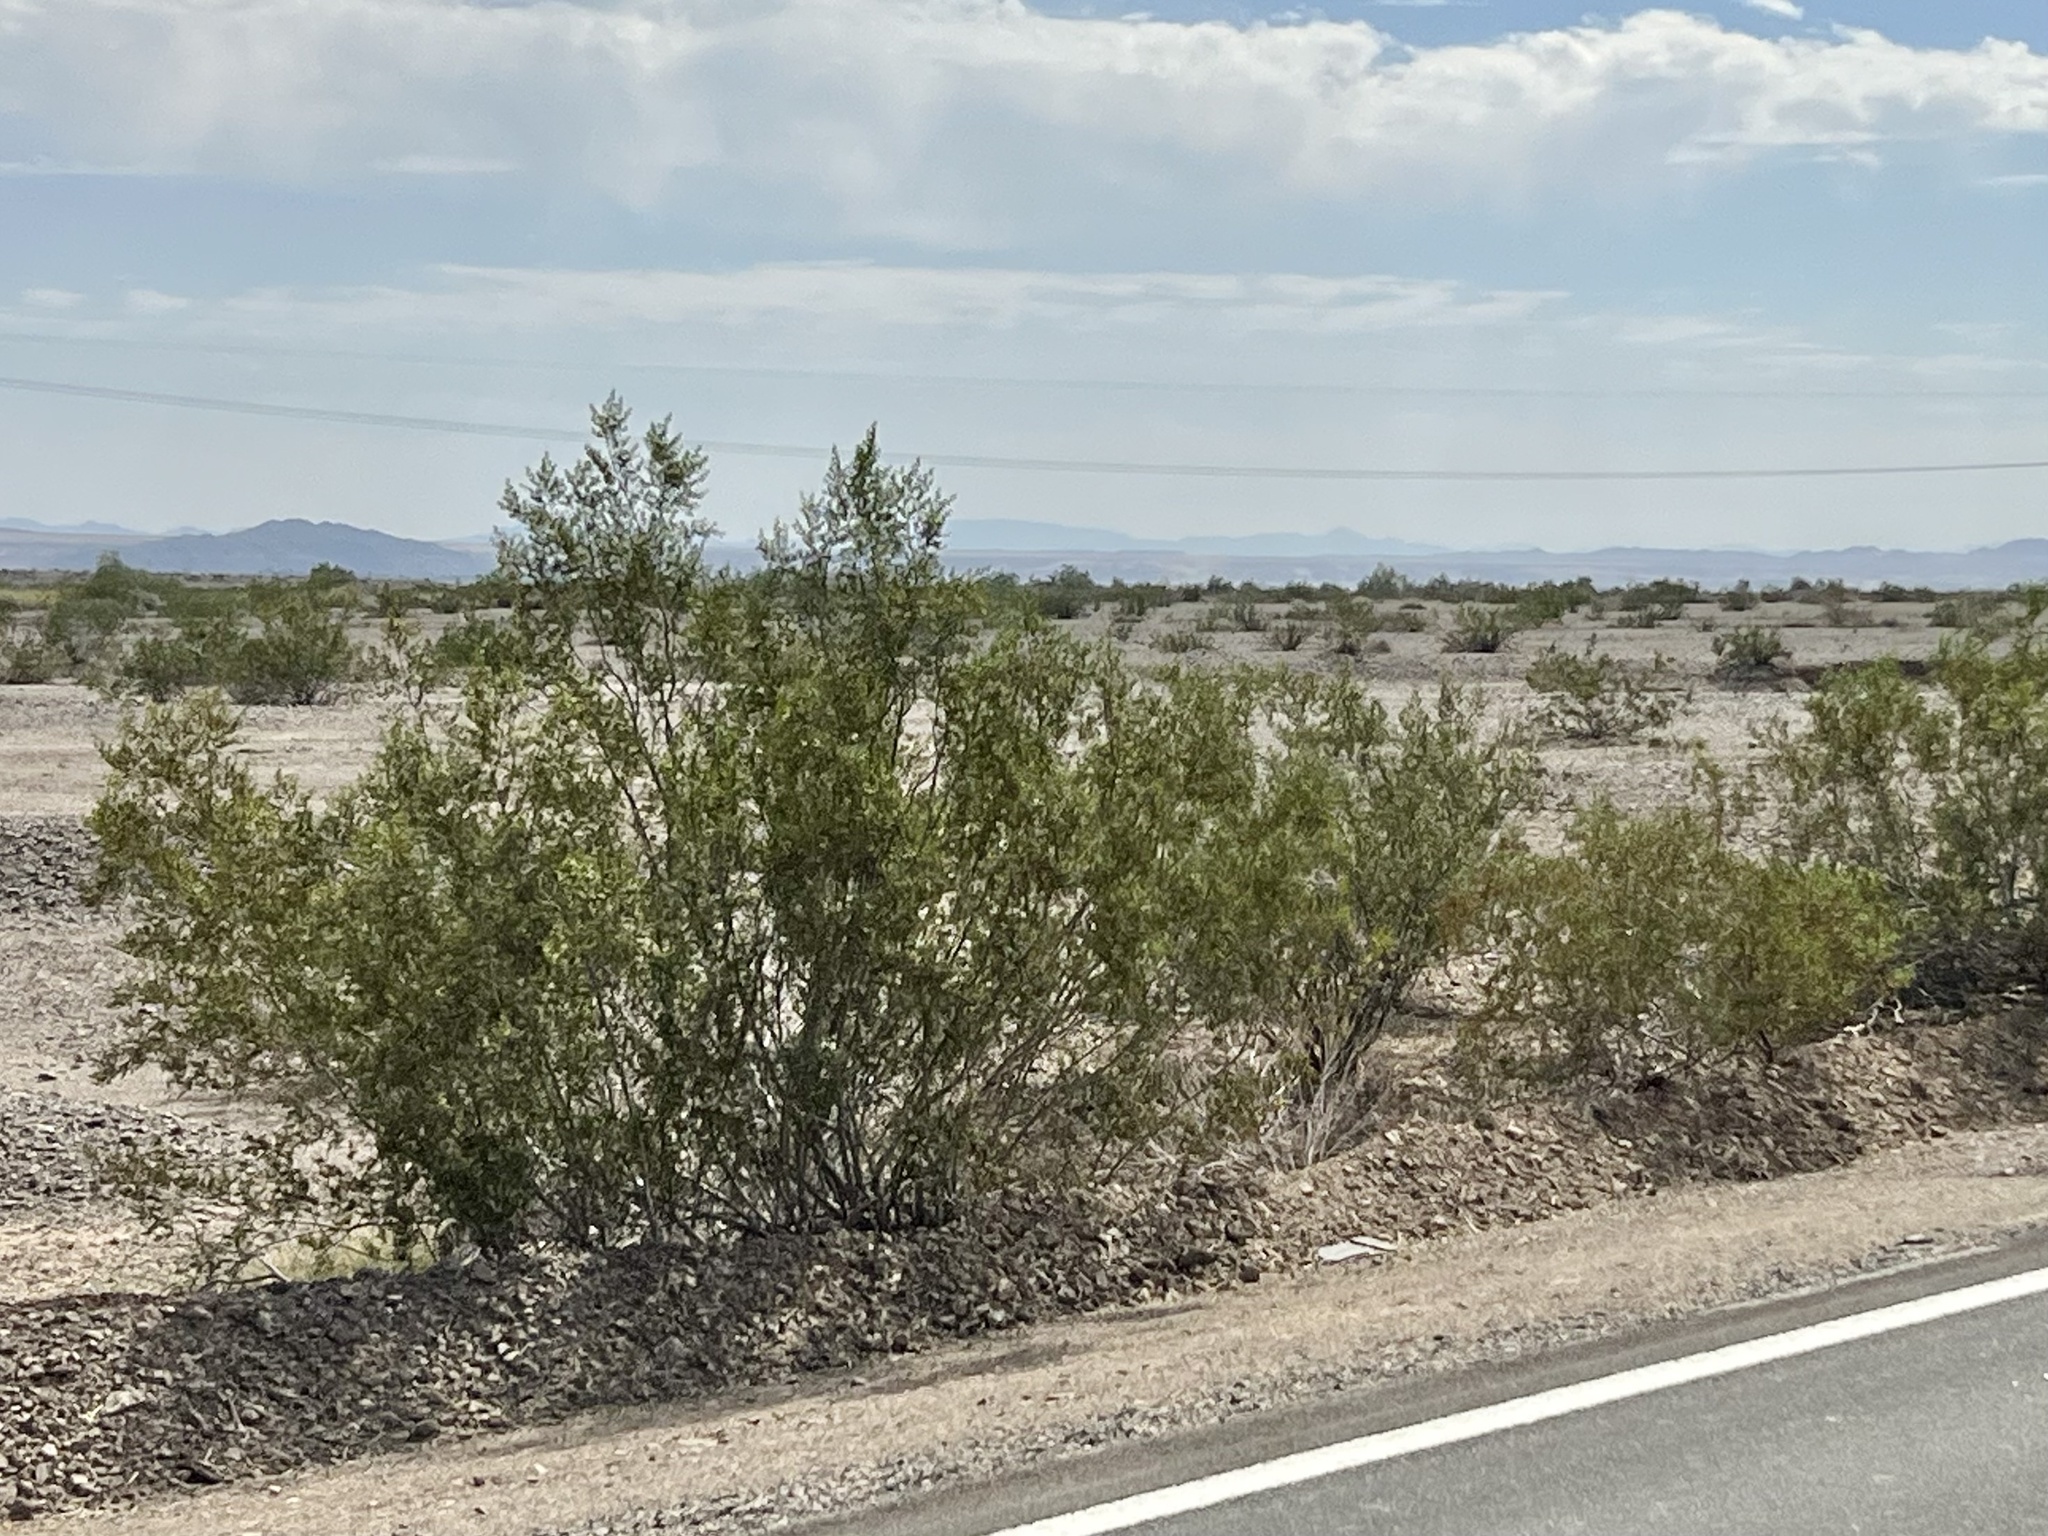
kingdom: Plantae
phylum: Tracheophyta
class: Magnoliopsida
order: Zygophyllales
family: Zygophyllaceae
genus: Larrea
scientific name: Larrea tridentata
